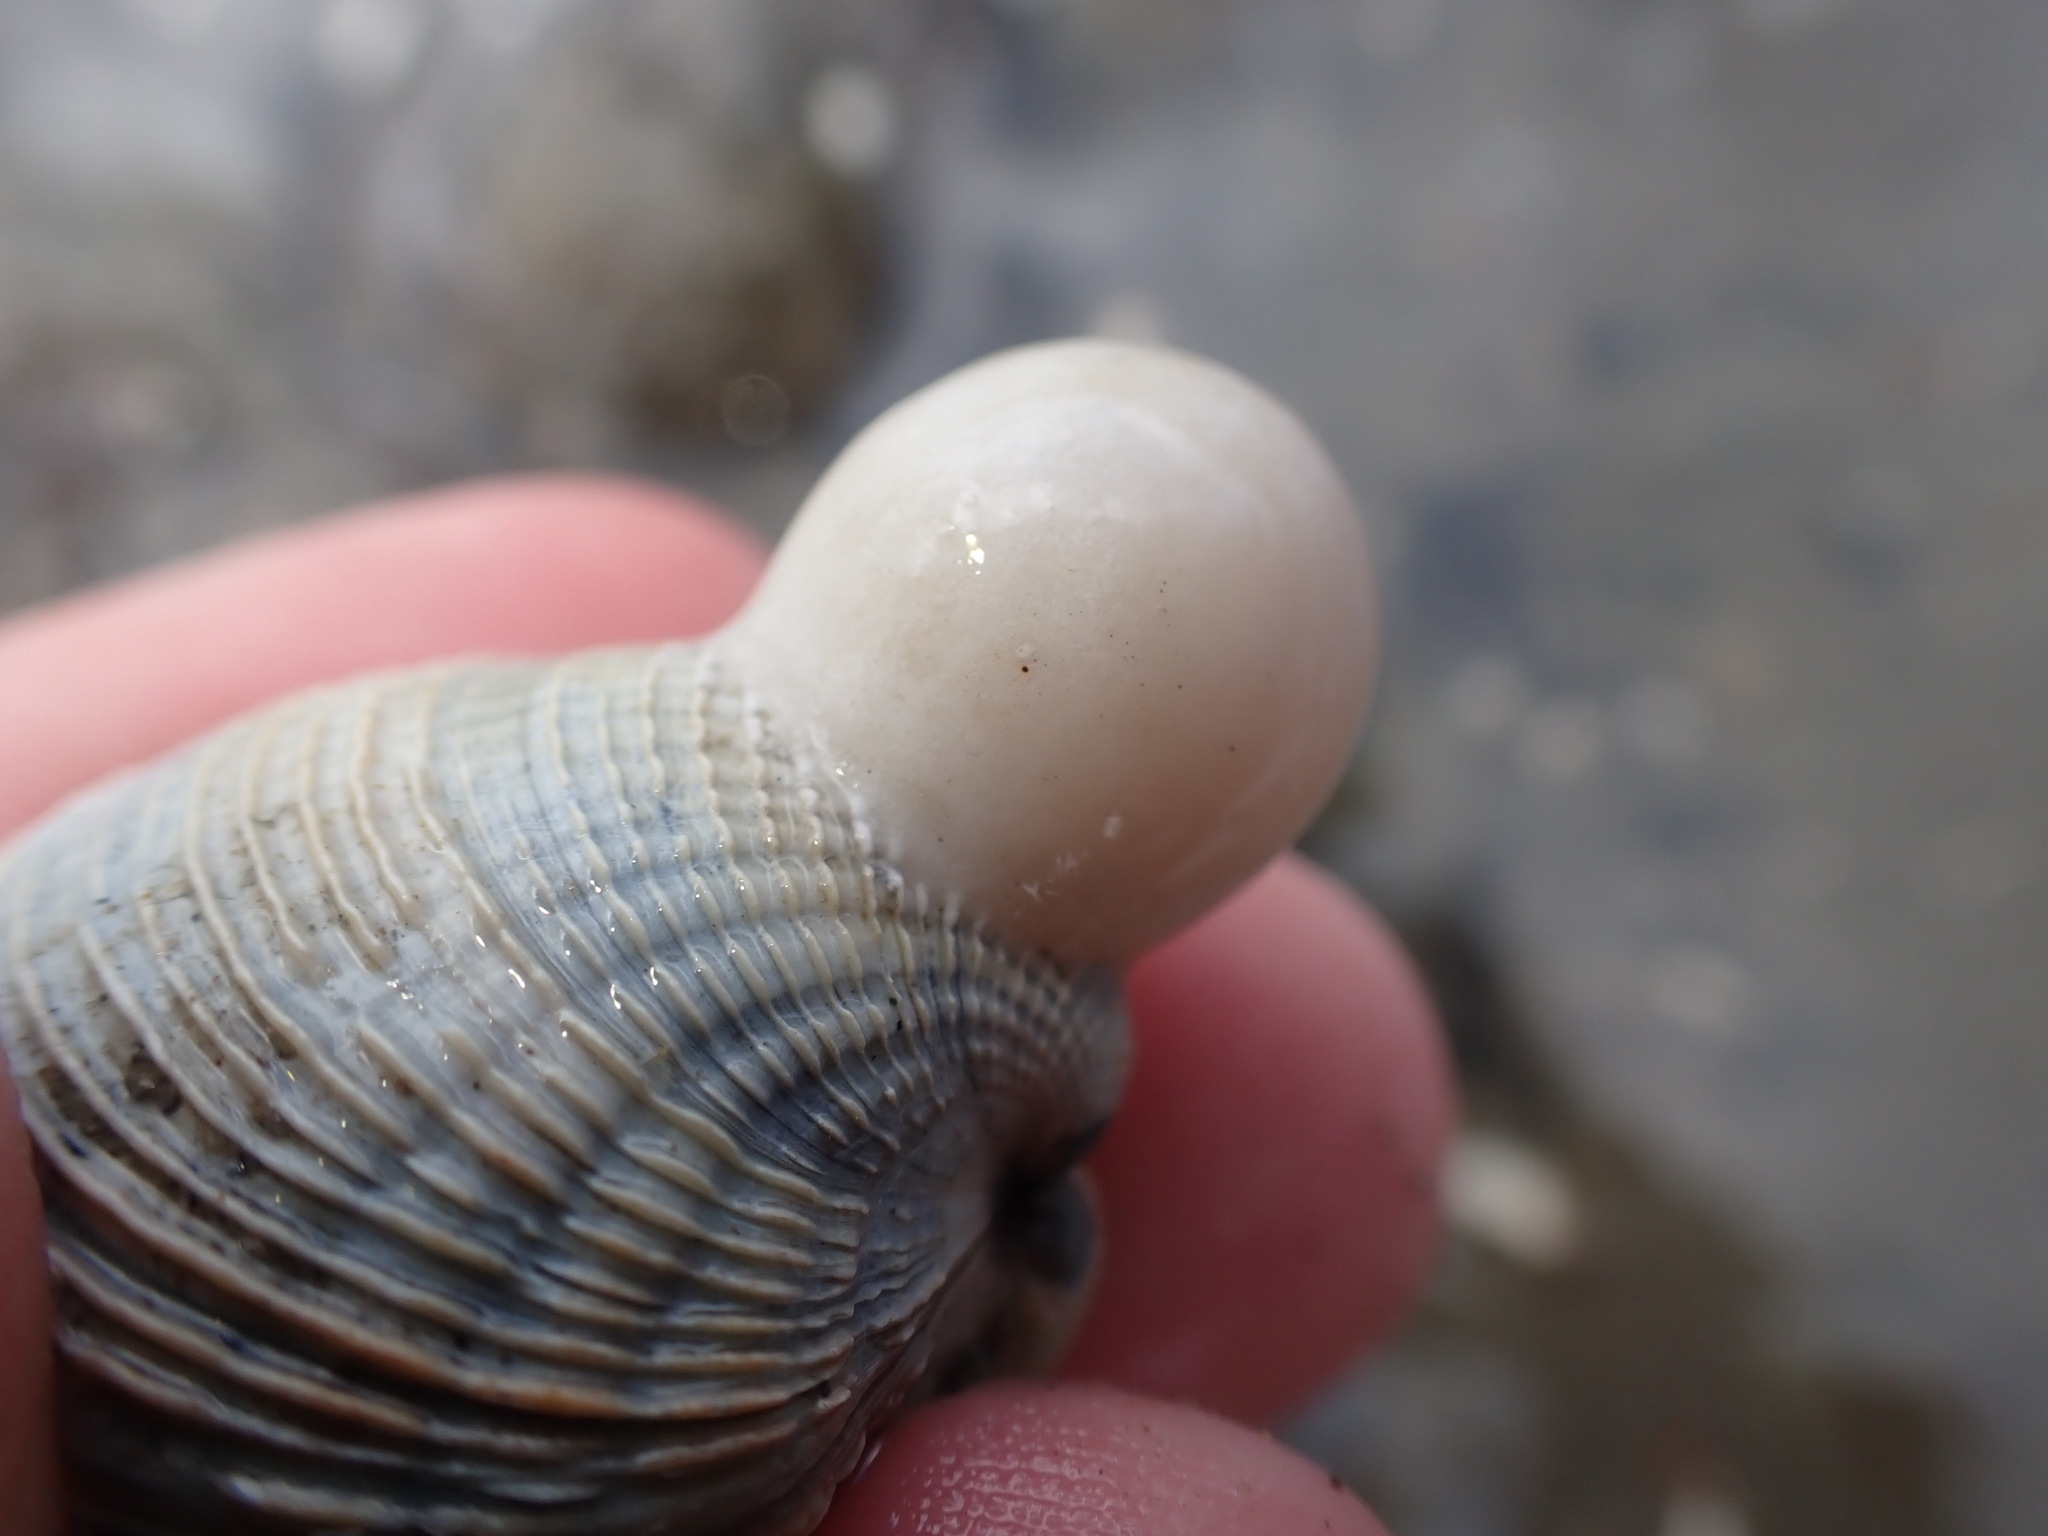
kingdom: Animalia
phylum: Mollusca
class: Gastropoda
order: Neogastropoda
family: Volutidae
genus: Alcithoe
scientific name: Alcithoe arabica
